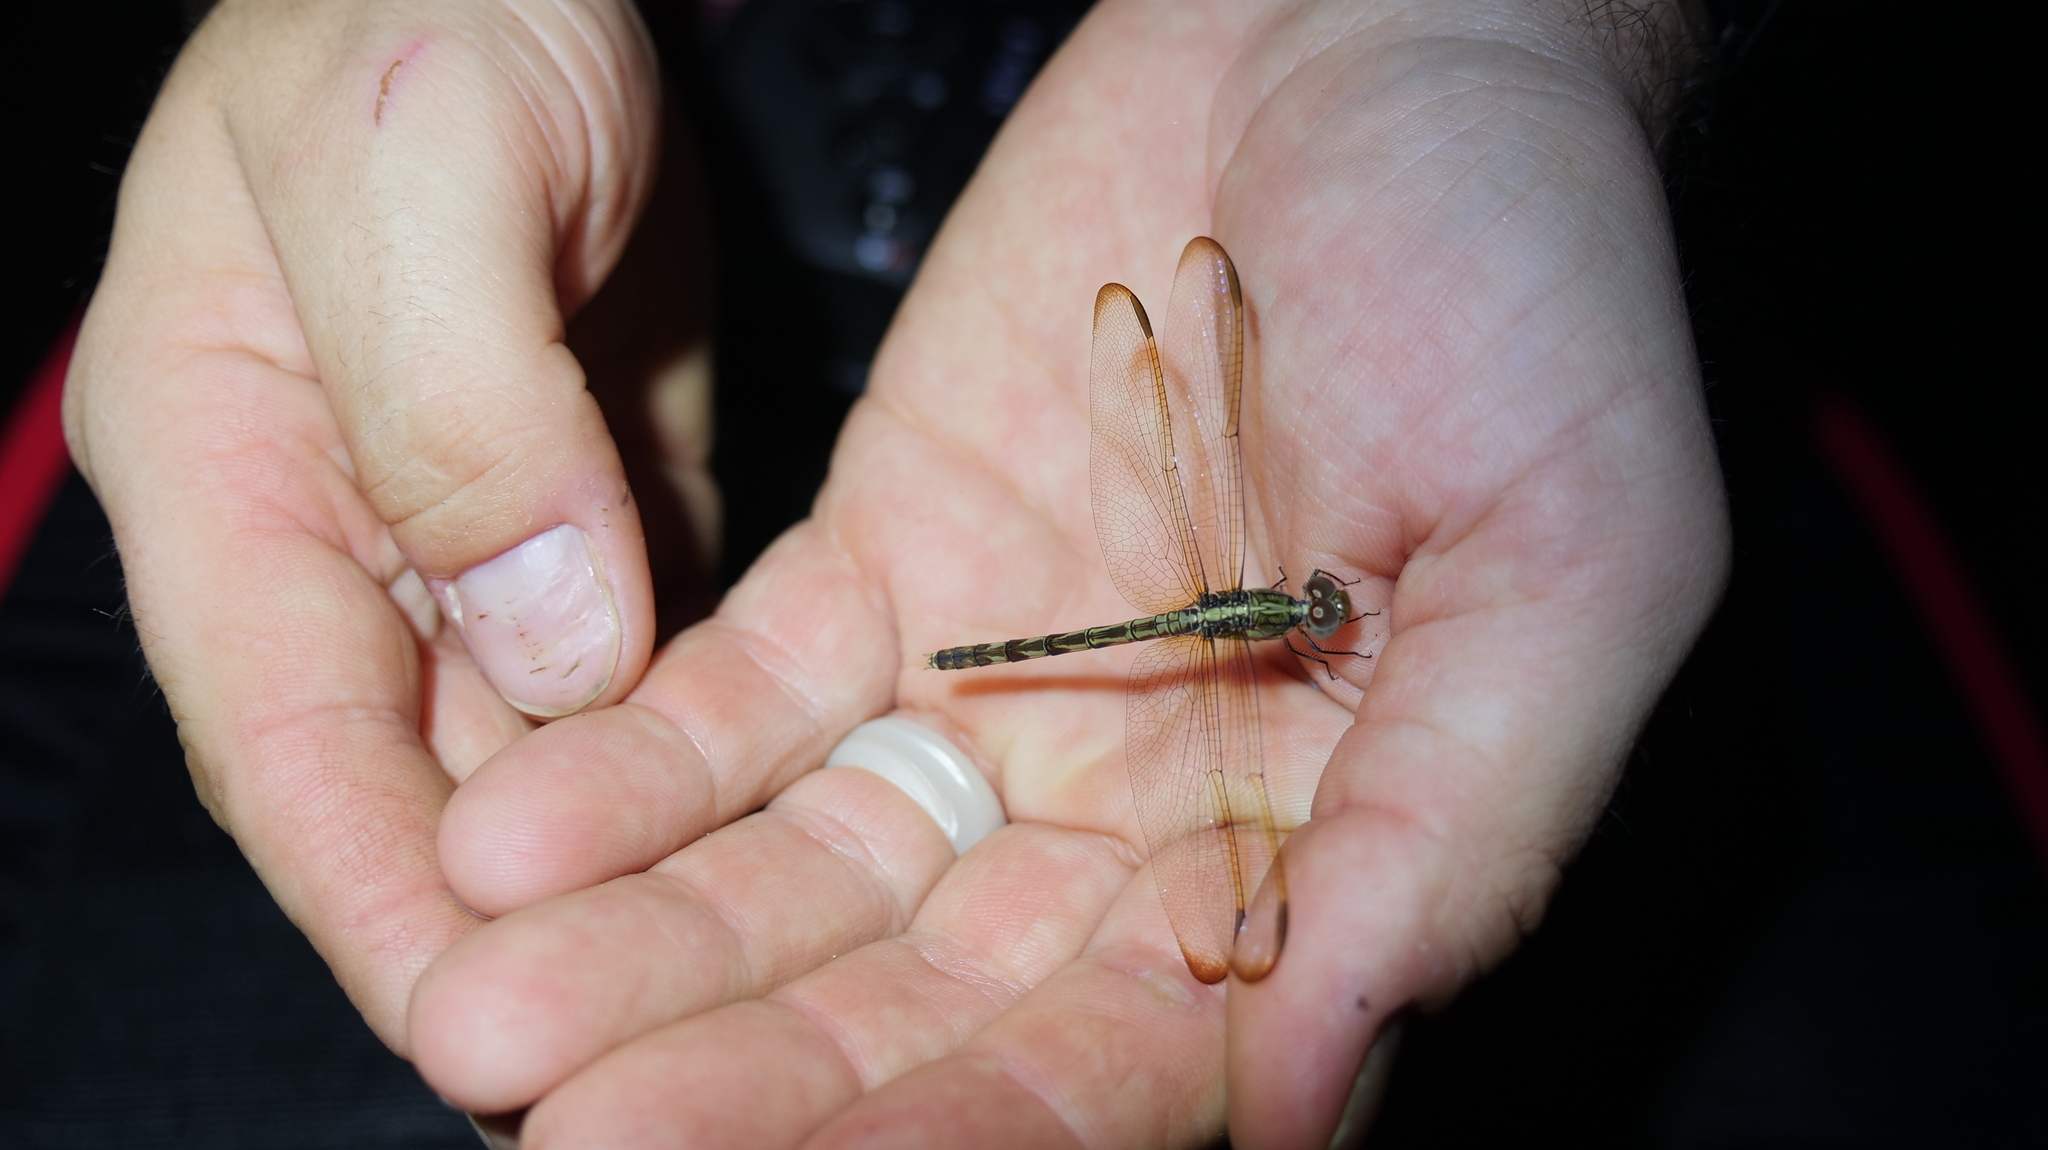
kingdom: Animalia
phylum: Arthropoda
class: Insecta
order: Odonata
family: Libellulidae
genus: Erythrodiplax
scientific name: Erythrodiplax umbrata
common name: Band-winged dragonlet
